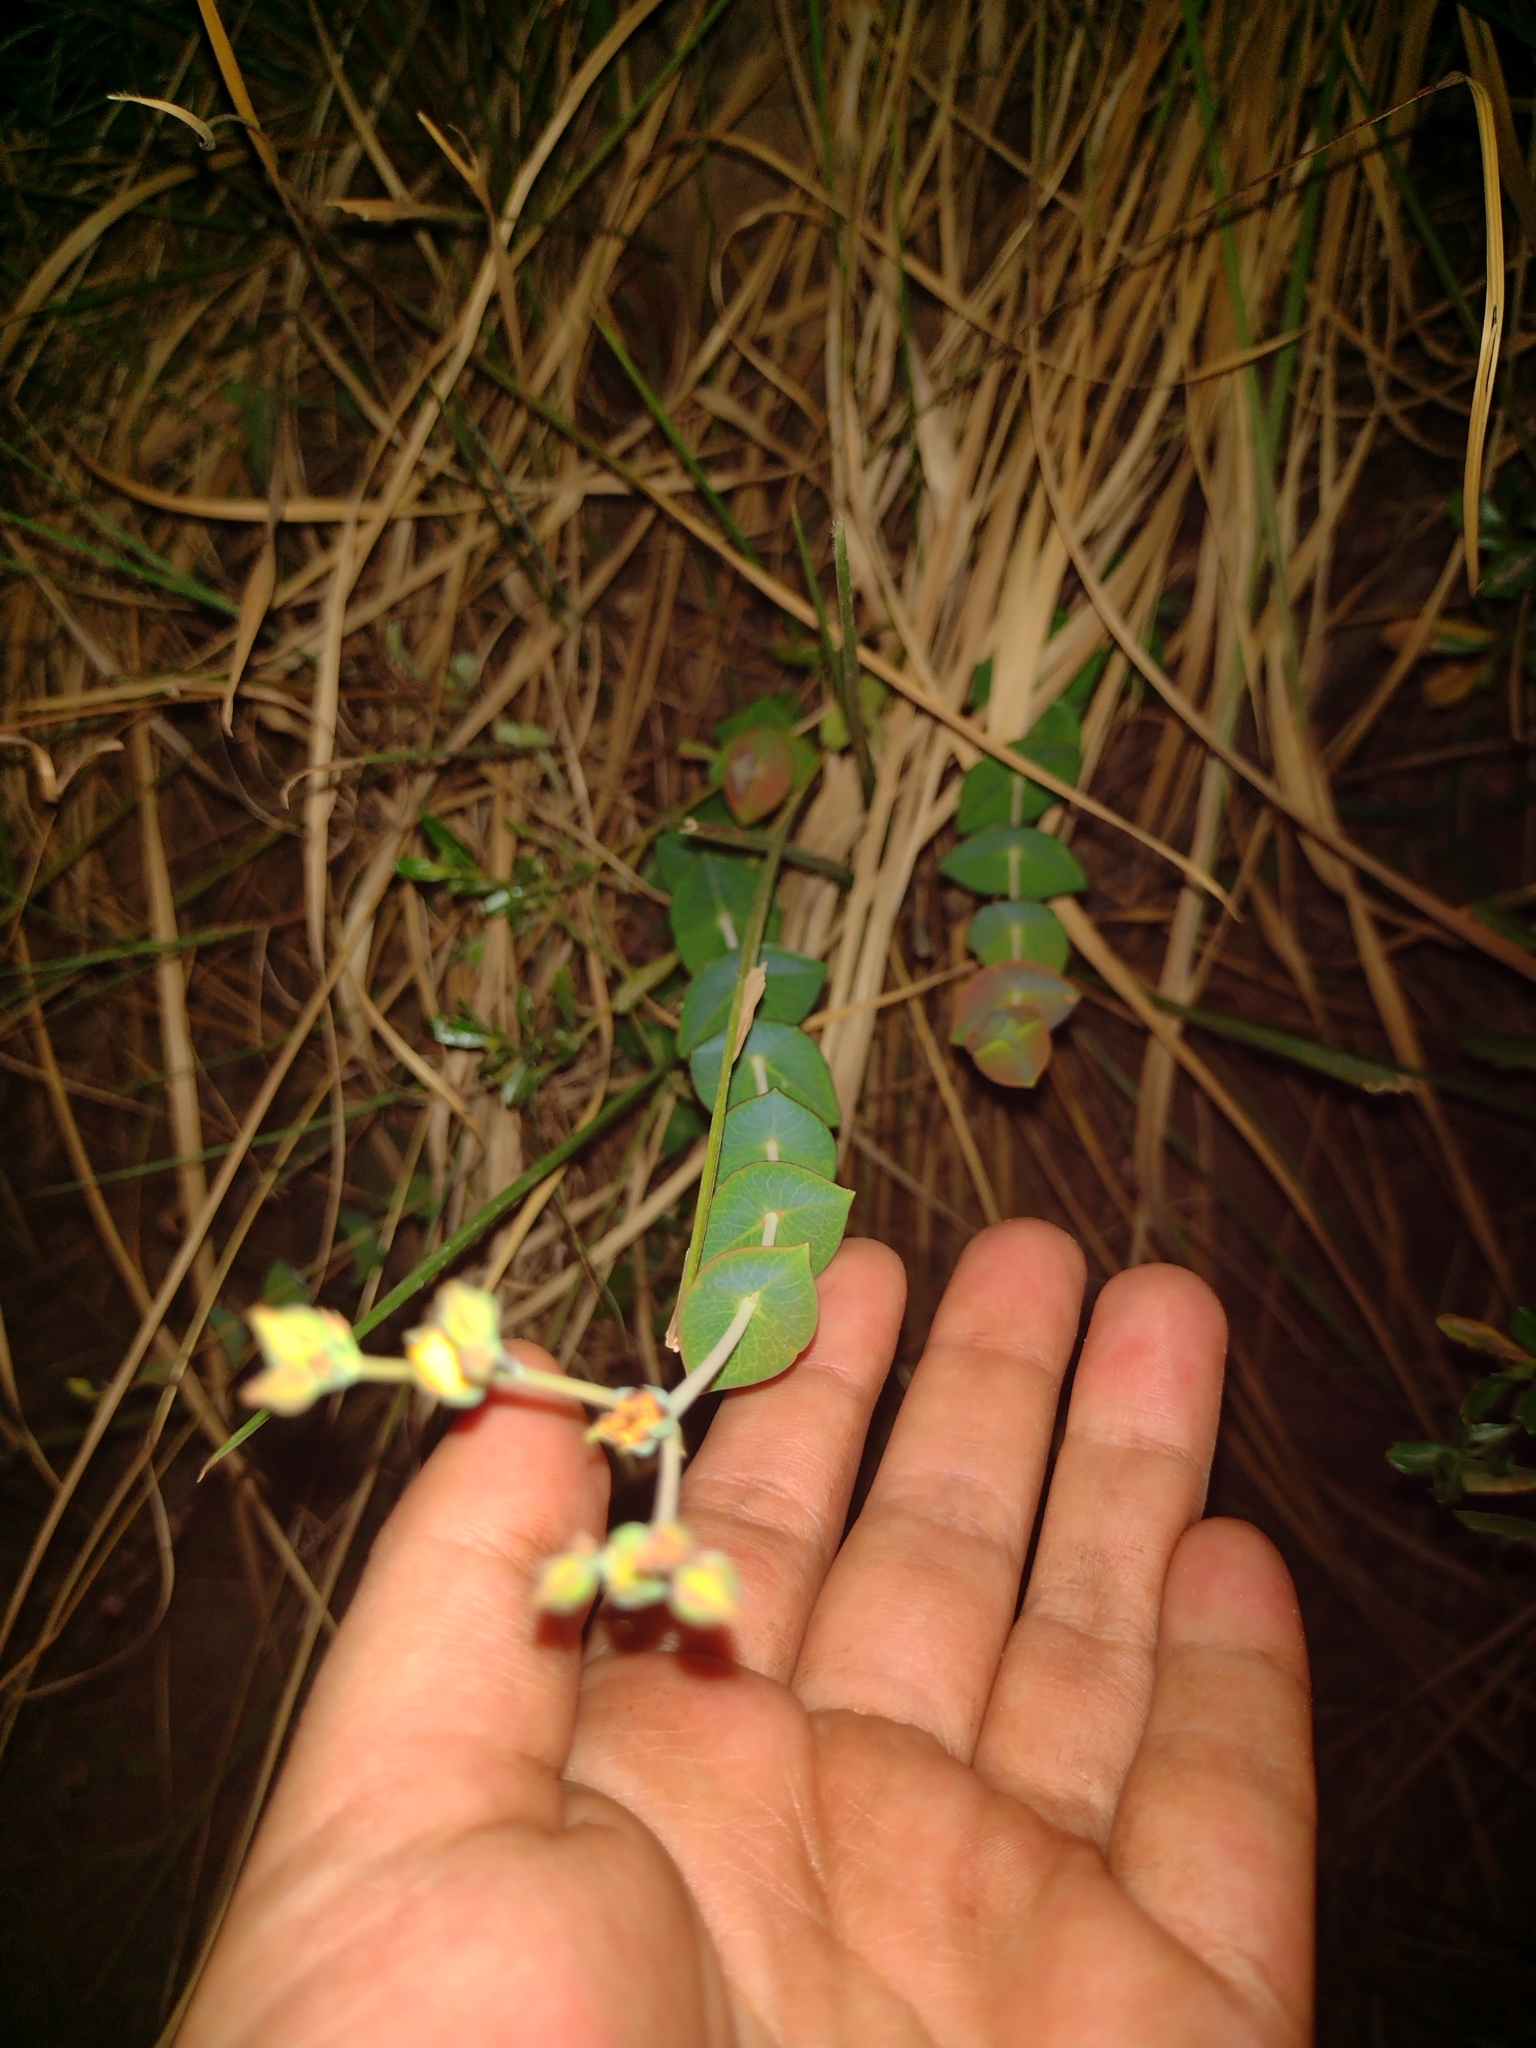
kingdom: Plantae
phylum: Tracheophyta
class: Magnoliopsida
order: Malpighiales
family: Hypericaceae
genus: Hypericum
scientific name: Hypericum connatum
